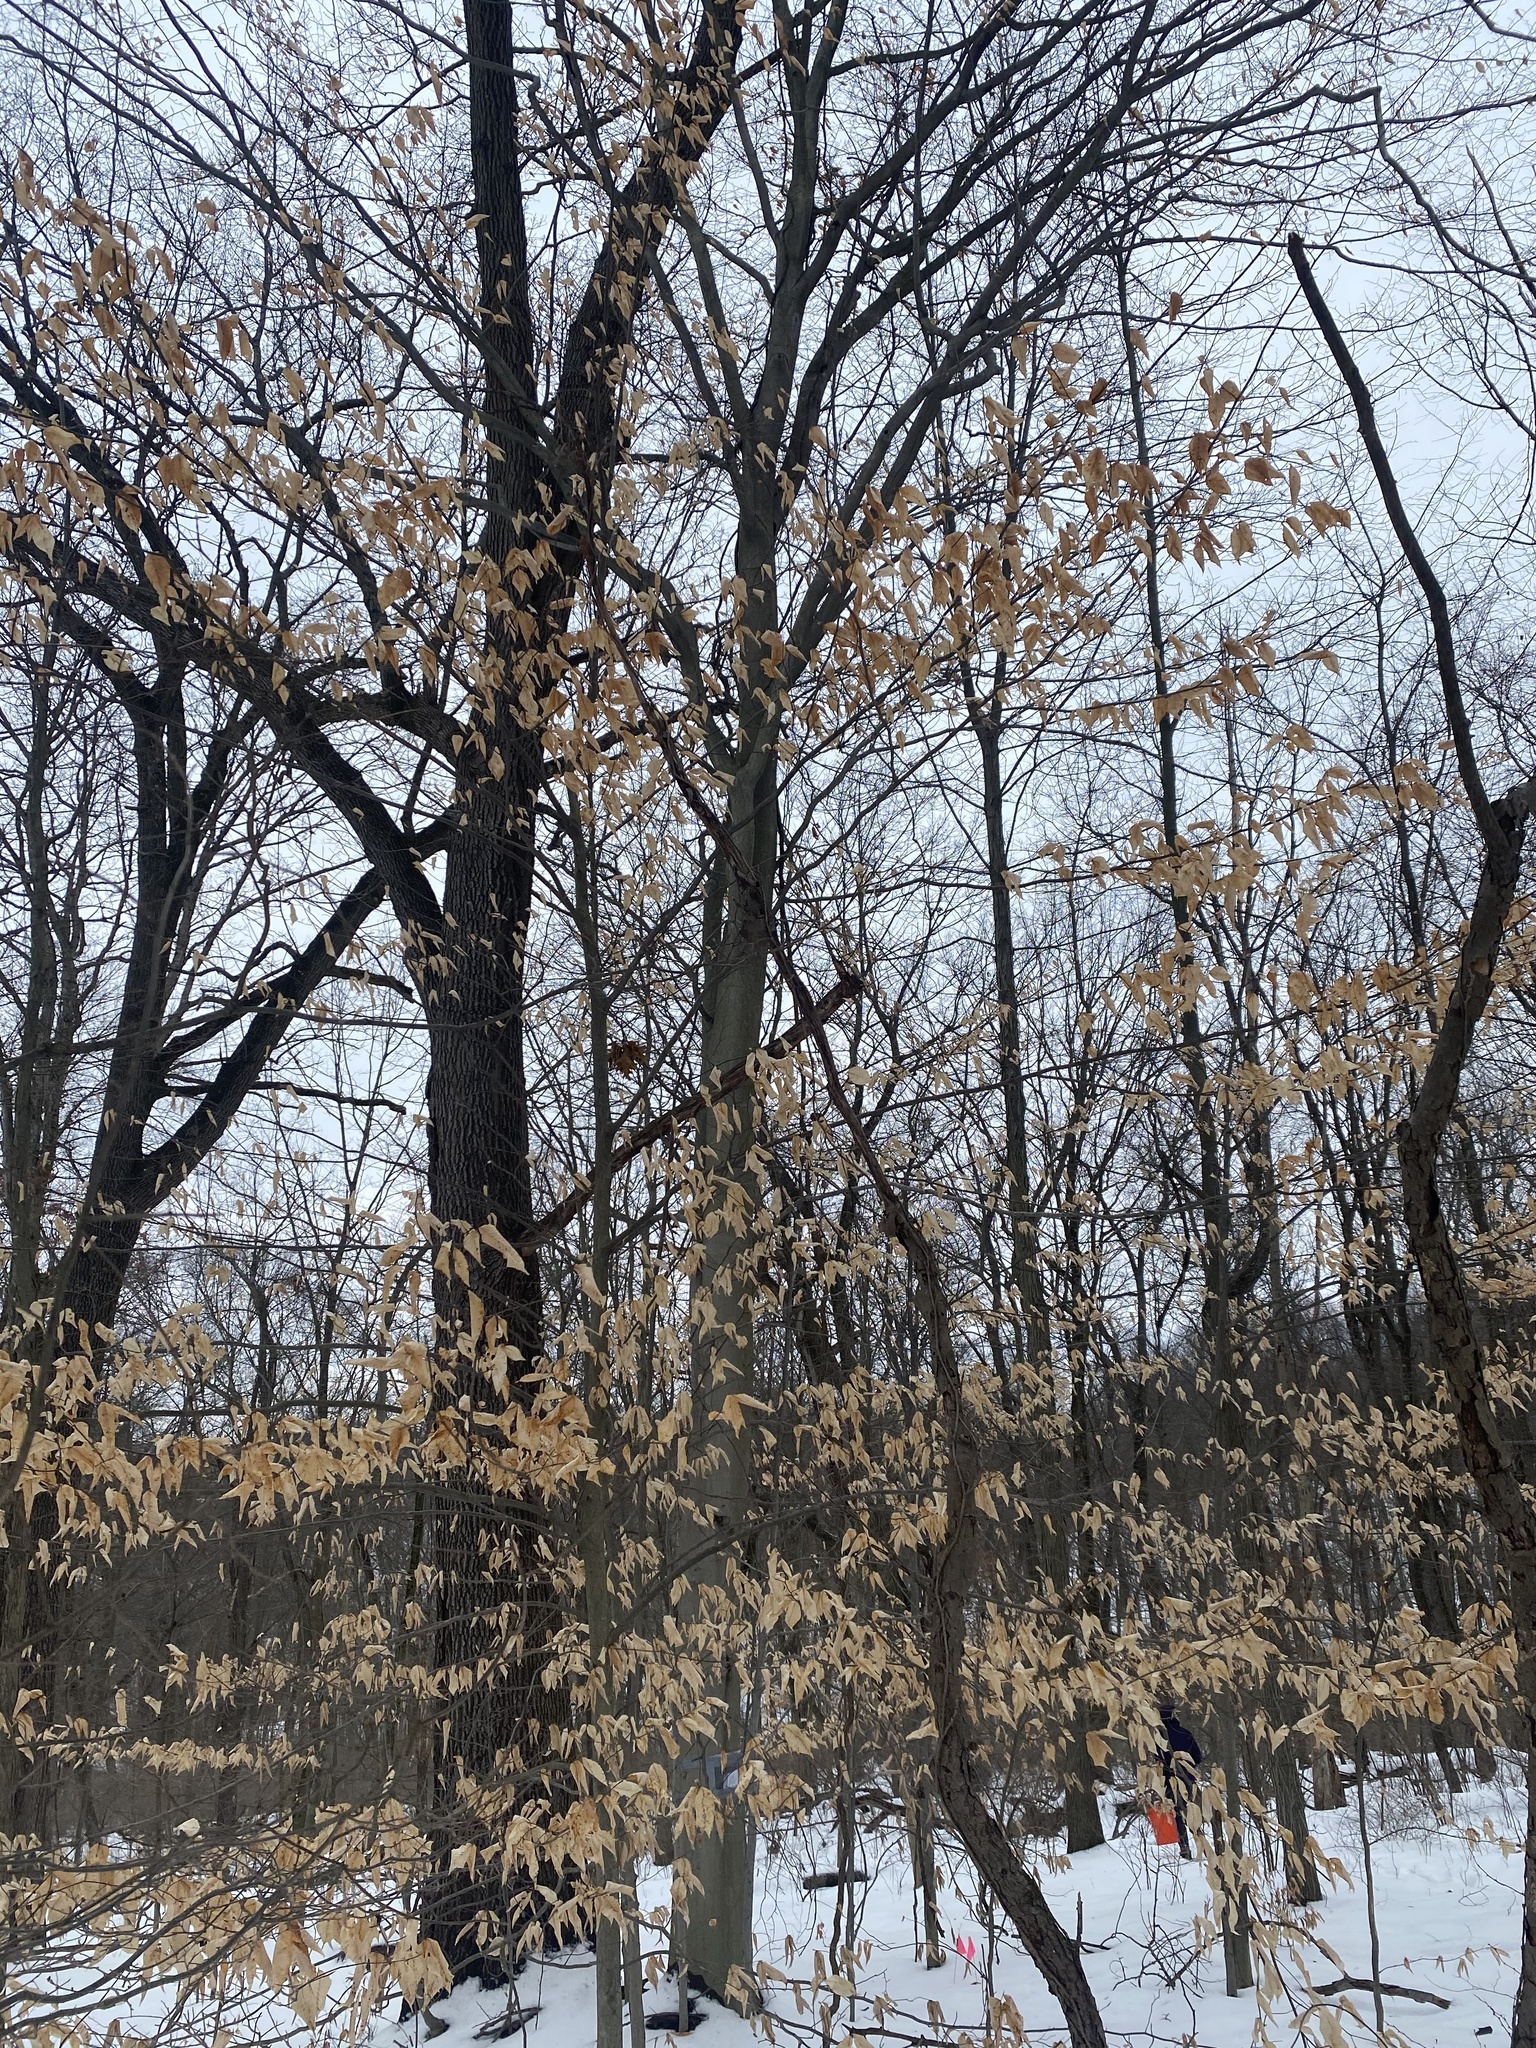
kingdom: Plantae
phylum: Tracheophyta
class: Magnoliopsida
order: Fagales
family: Fagaceae
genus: Fagus
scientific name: Fagus grandifolia
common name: American beech
